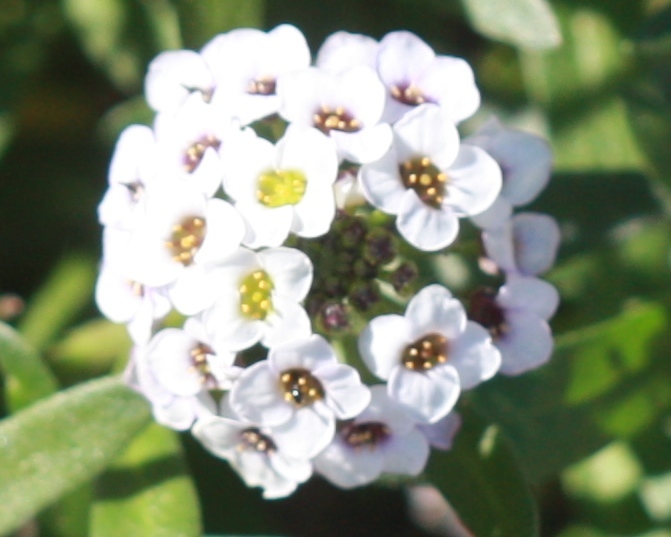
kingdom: Plantae
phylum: Tracheophyta
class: Magnoliopsida
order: Brassicales
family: Brassicaceae
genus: Lobularia
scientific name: Lobularia maritima
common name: Sweet alison
